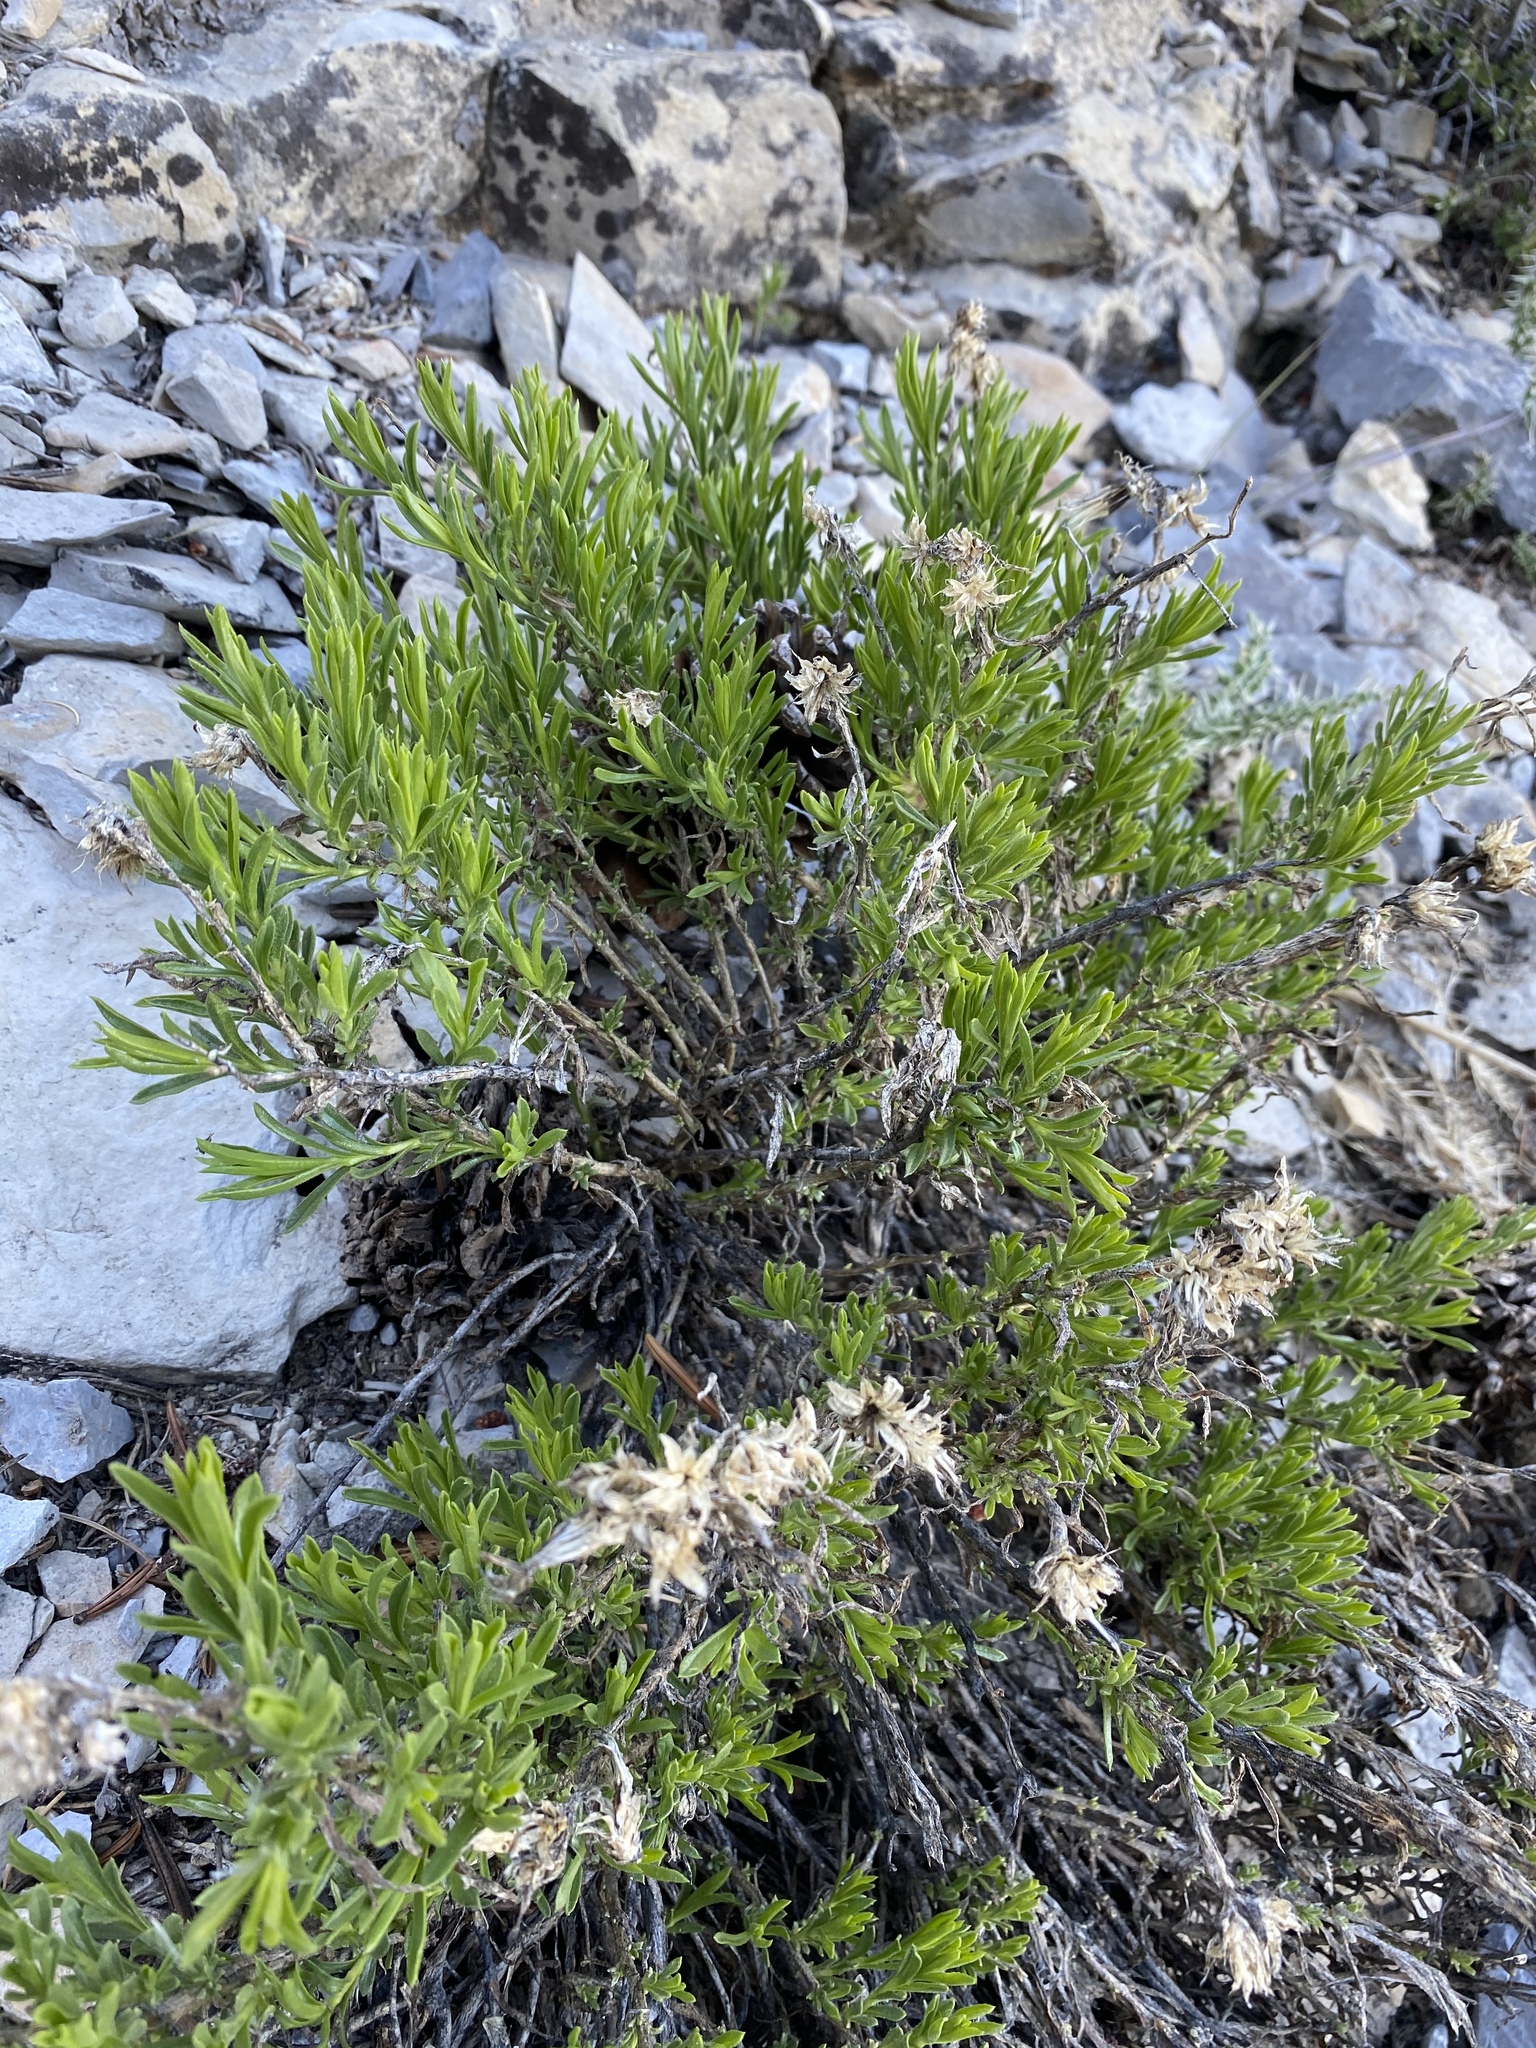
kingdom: Plantae
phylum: Tracheophyta
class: Magnoliopsida
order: Asterales
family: Asteraceae
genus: Ericameria
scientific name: Ericameria compacta
